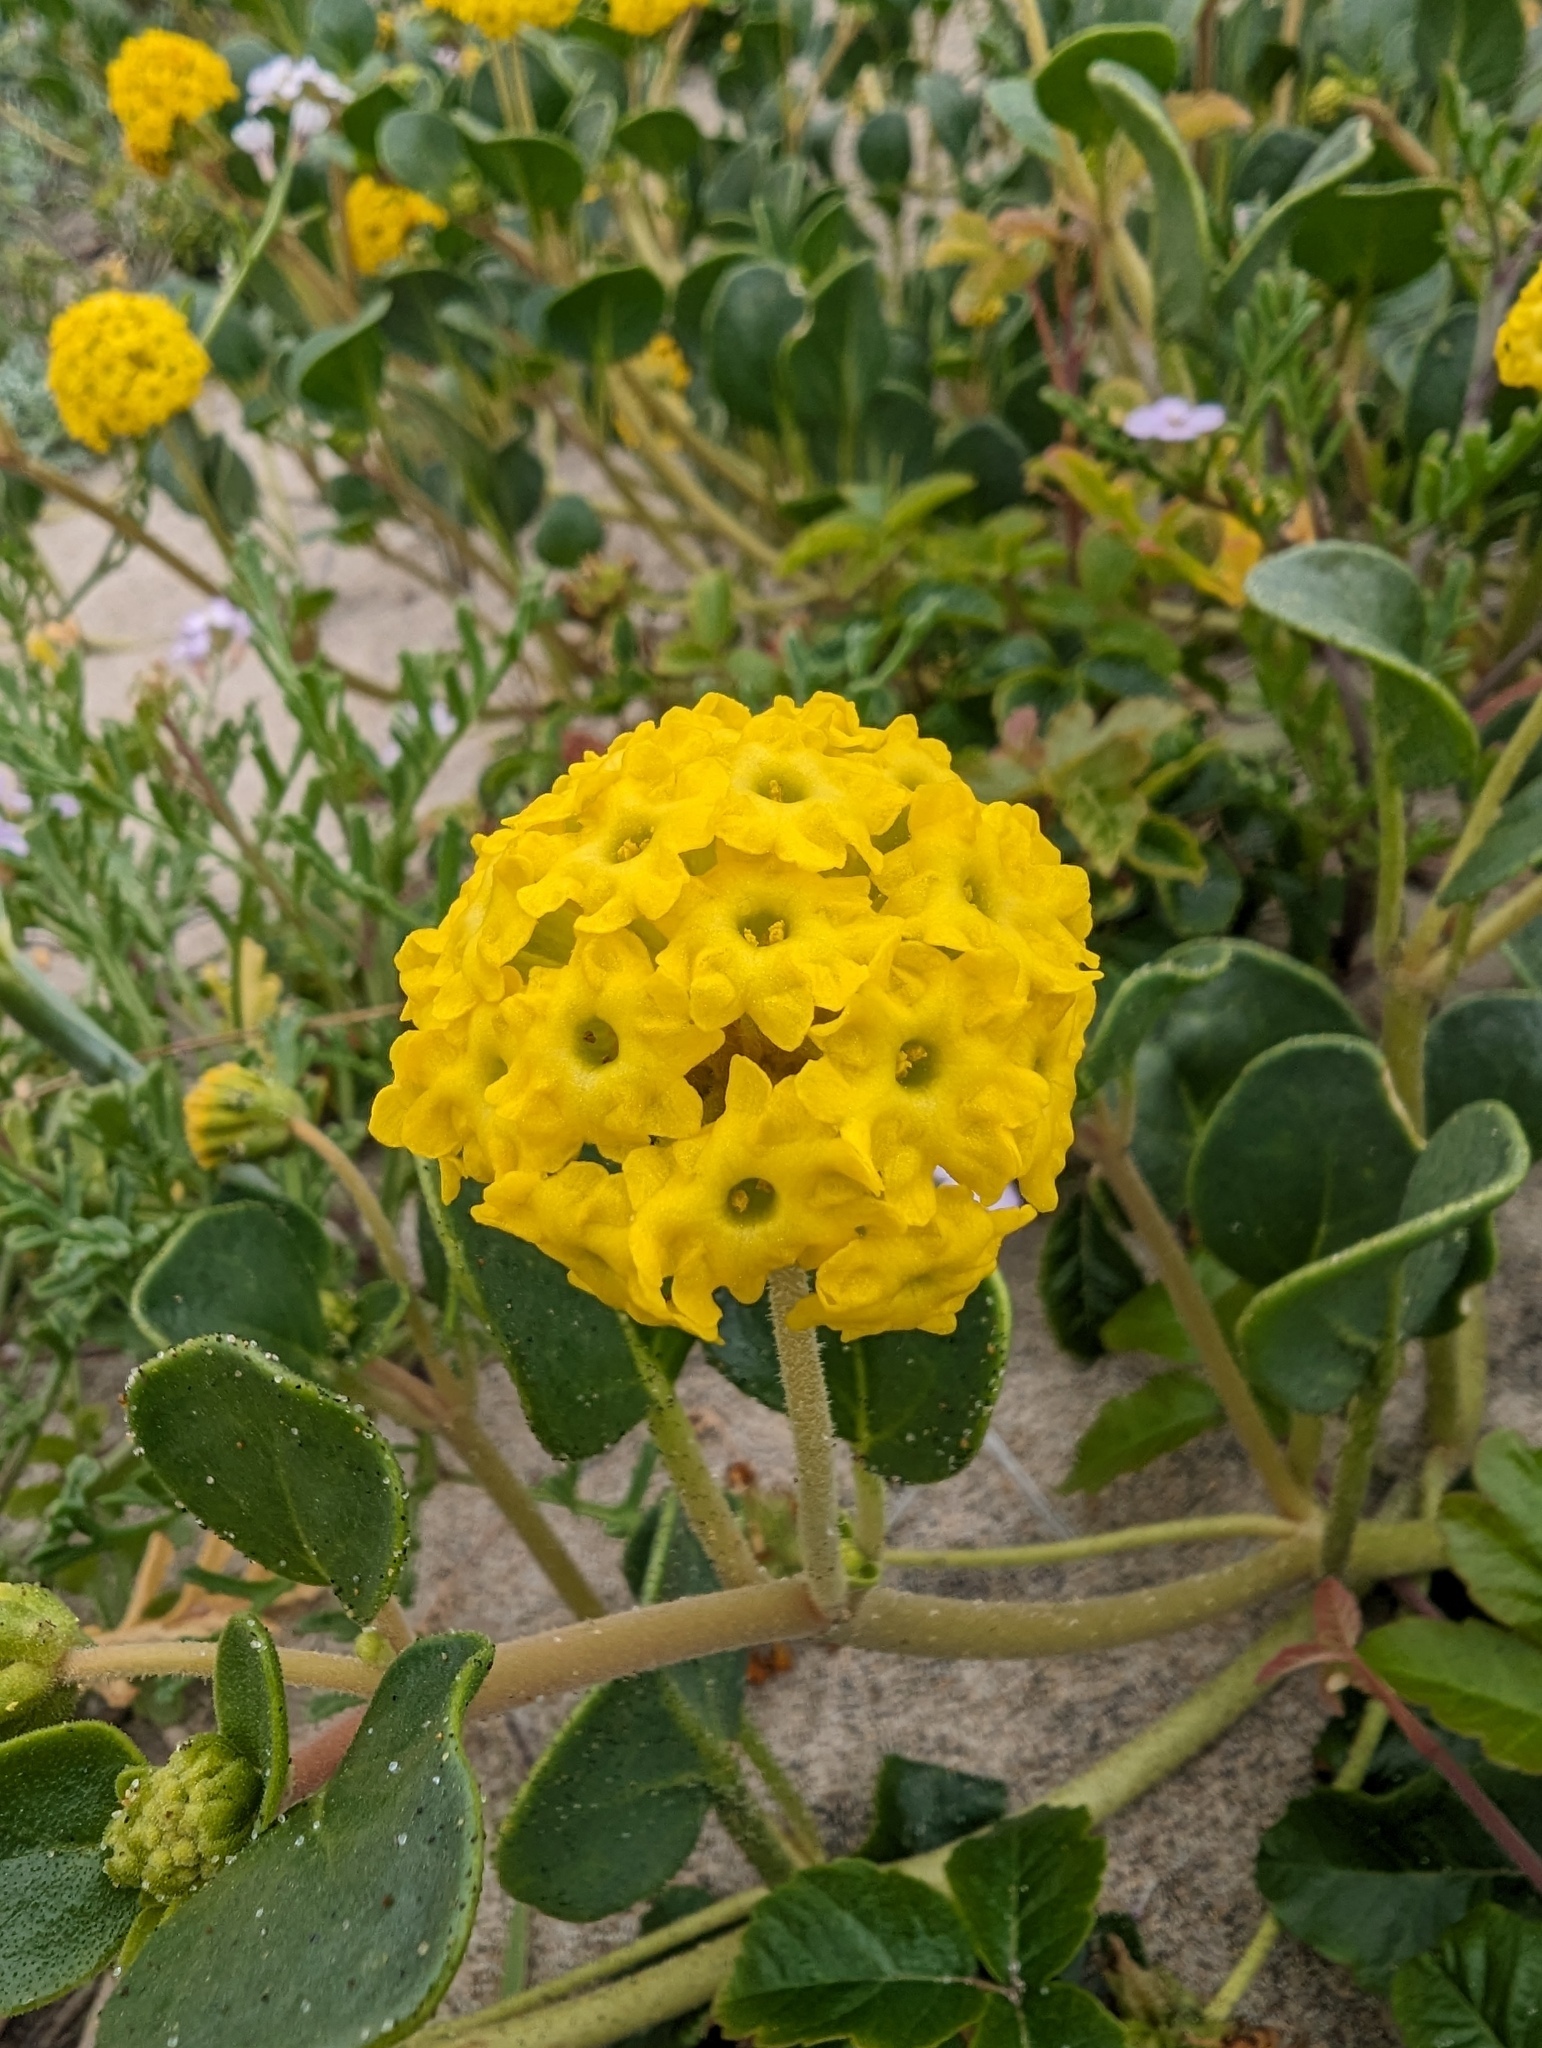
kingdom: Plantae
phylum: Tracheophyta
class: Magnoliopsida
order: Caryophyllales
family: Nyctaginaceae
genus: Abronia
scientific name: Abronia latifolia
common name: Yellow sand-verbena
